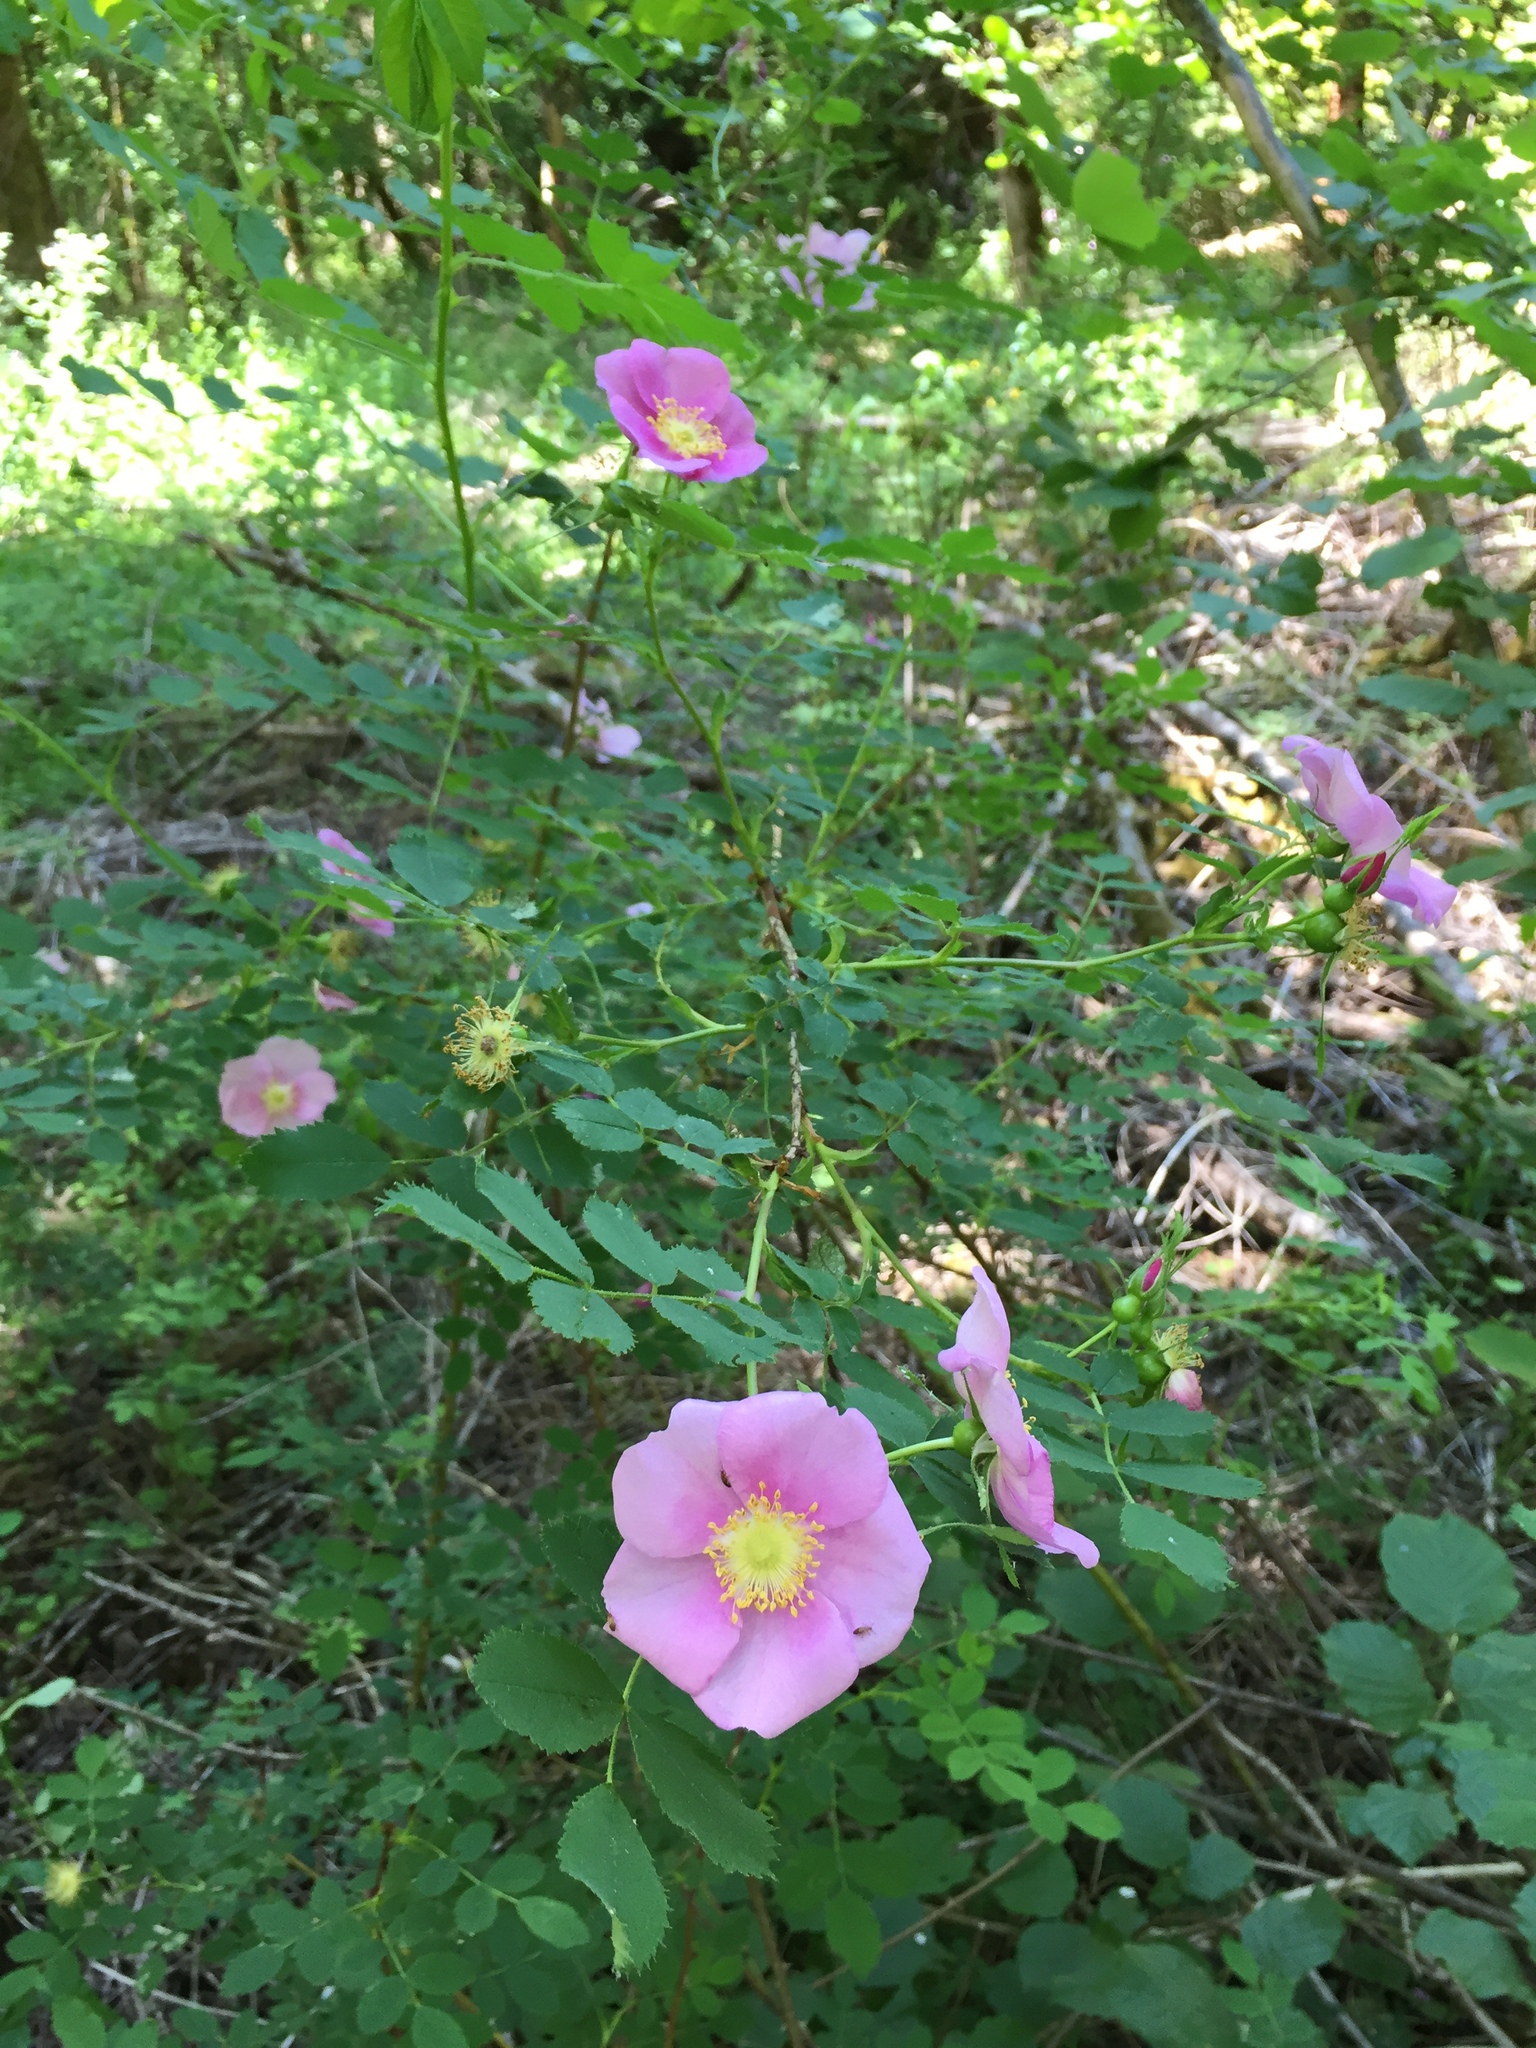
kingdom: Plantae
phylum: Tracheophyta
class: Magnoliopsida
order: Rosales
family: Rosaceae
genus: Rosa
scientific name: Rosa nutkana
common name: Nootka rose
